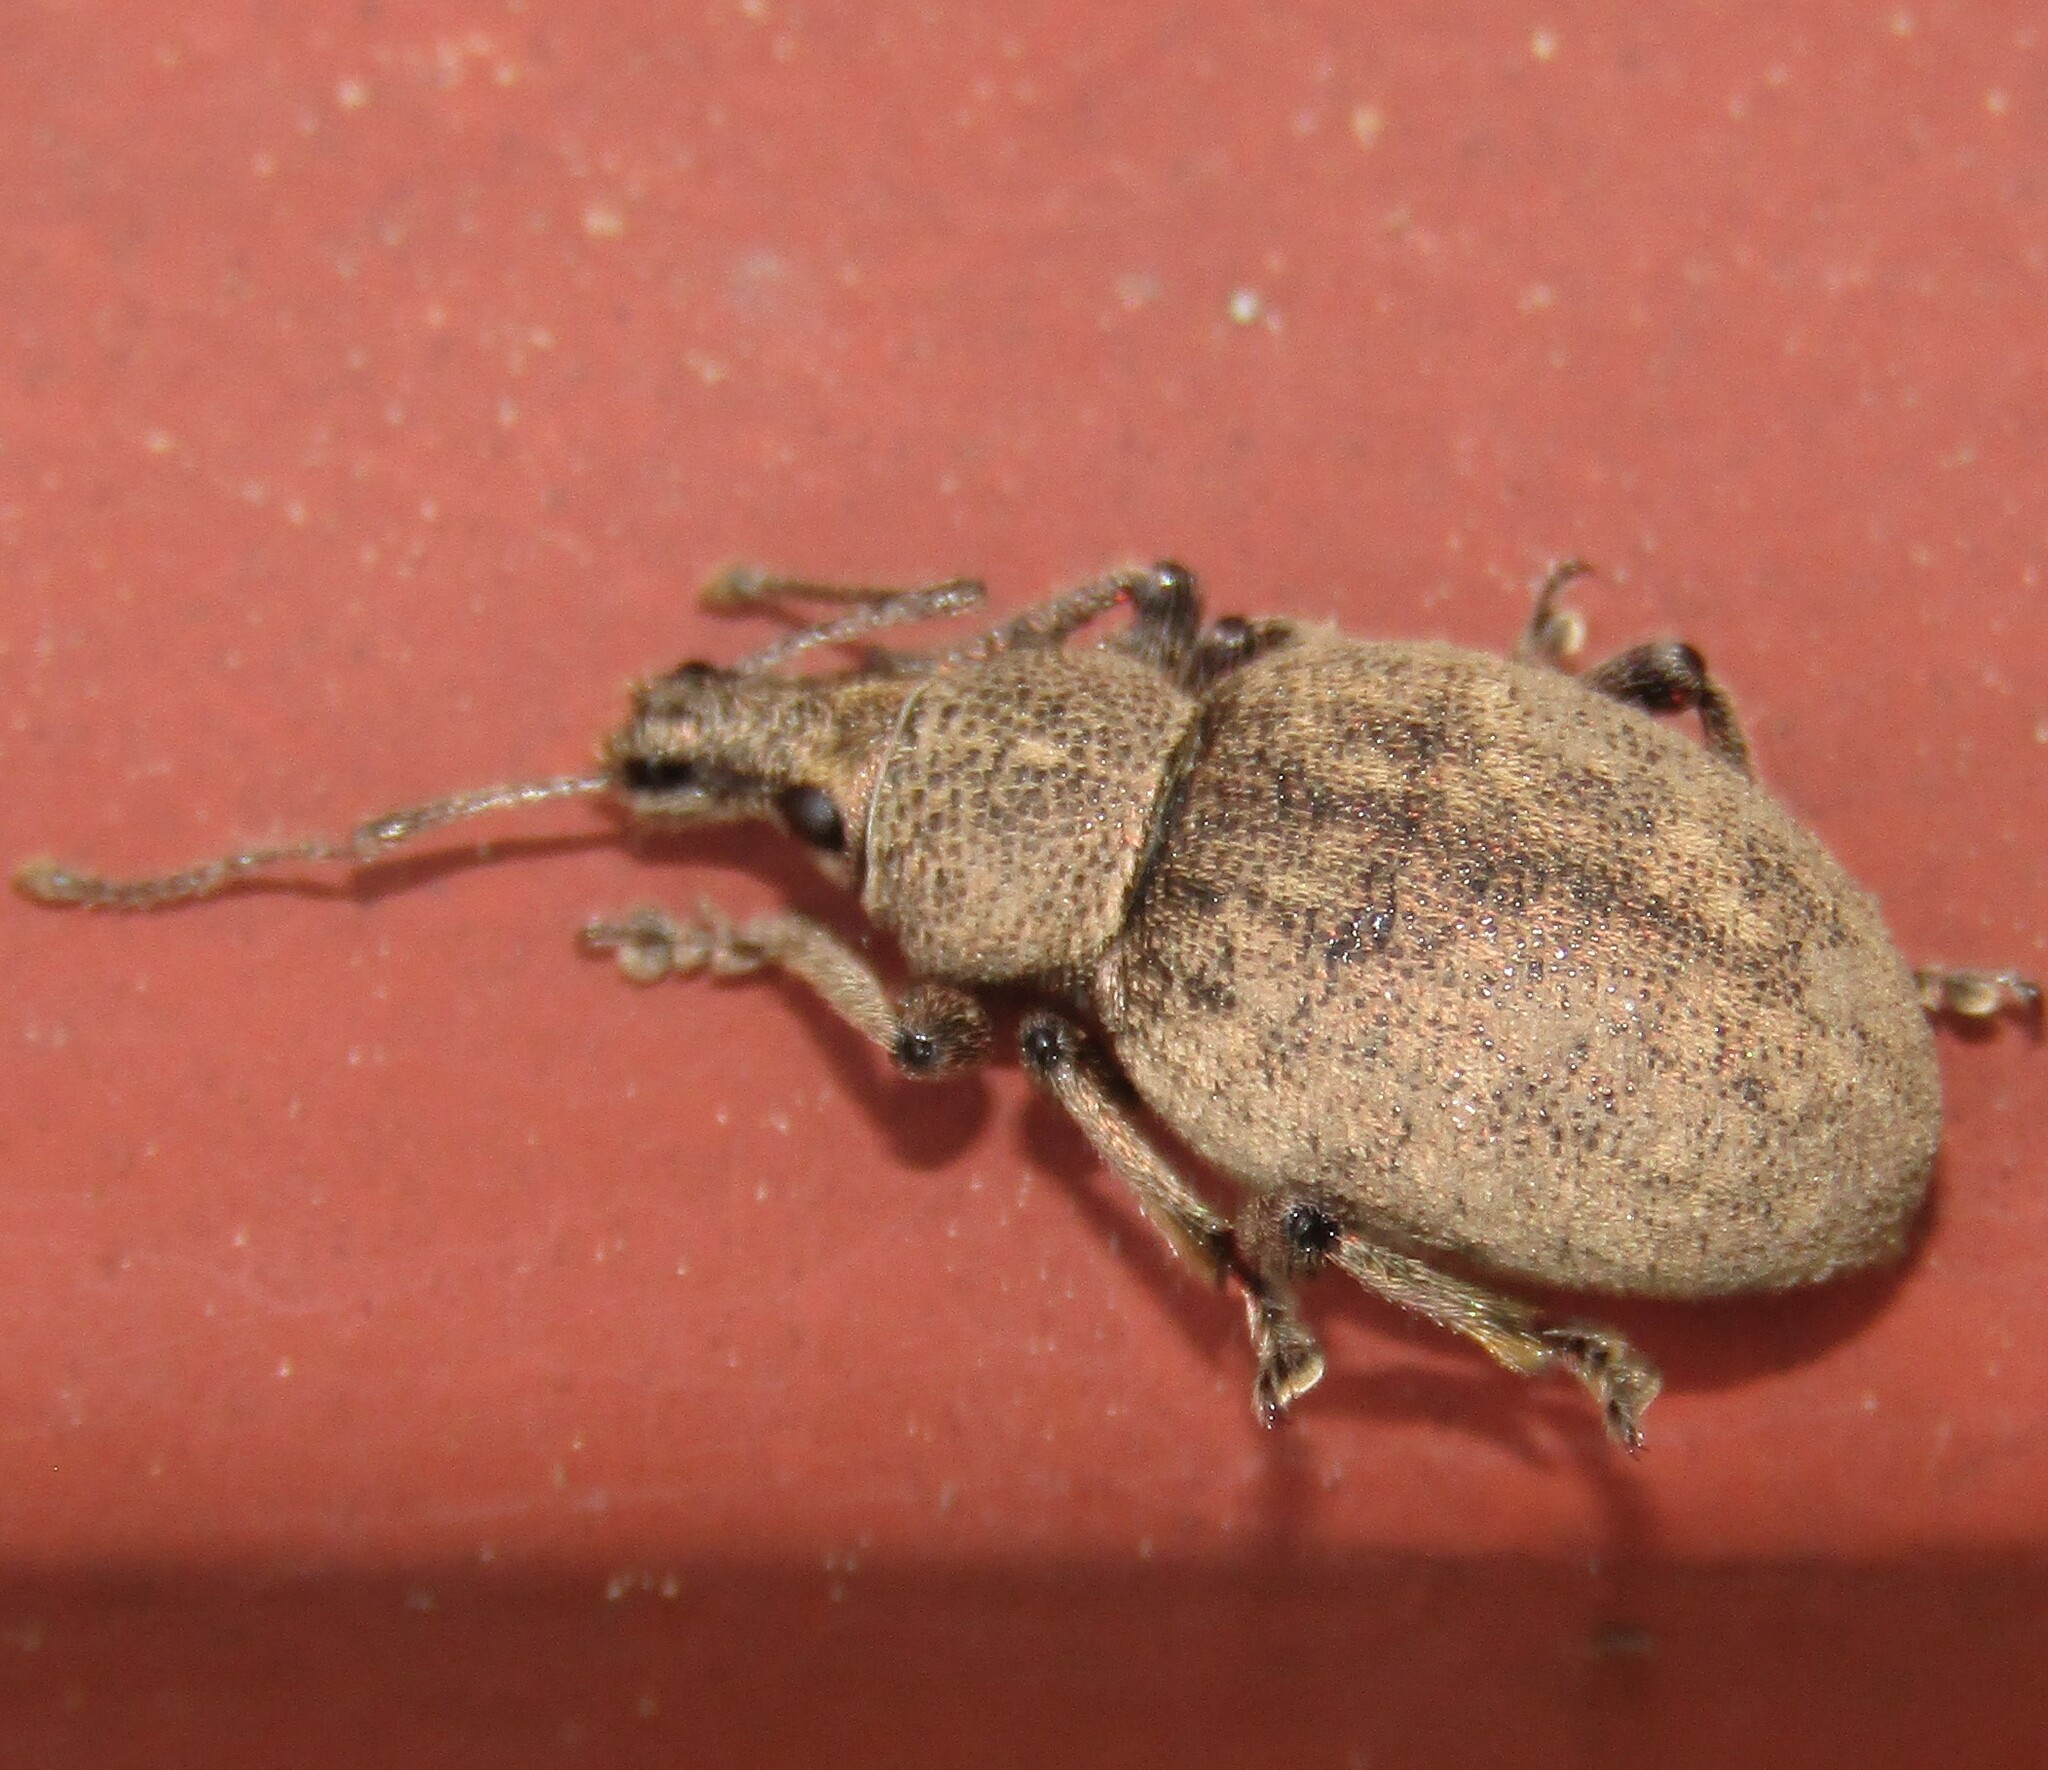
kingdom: Animalia
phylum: Arthropoda
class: Insecta
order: Coleoptera
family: Curculionidae
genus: Otiorhynchus
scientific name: Otiorhynchus ligustici
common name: Weevil
